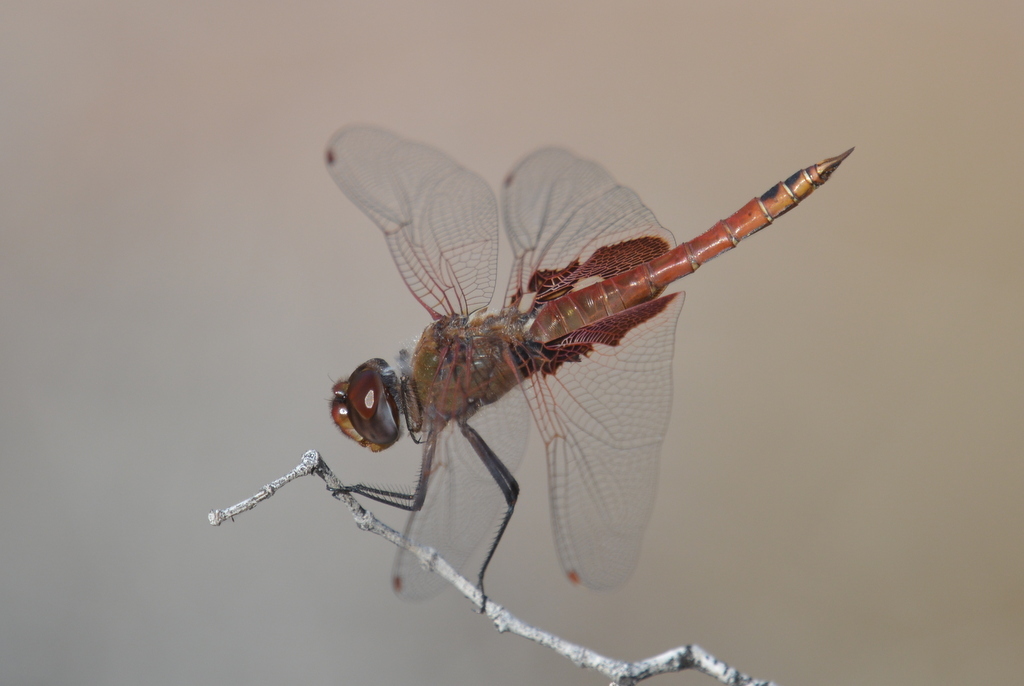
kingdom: Animalia
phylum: Arthropoda
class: Insecta
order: Odonata
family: Libellulidae
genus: Tramea
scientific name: Tramea onusta
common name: Red saddlebags
